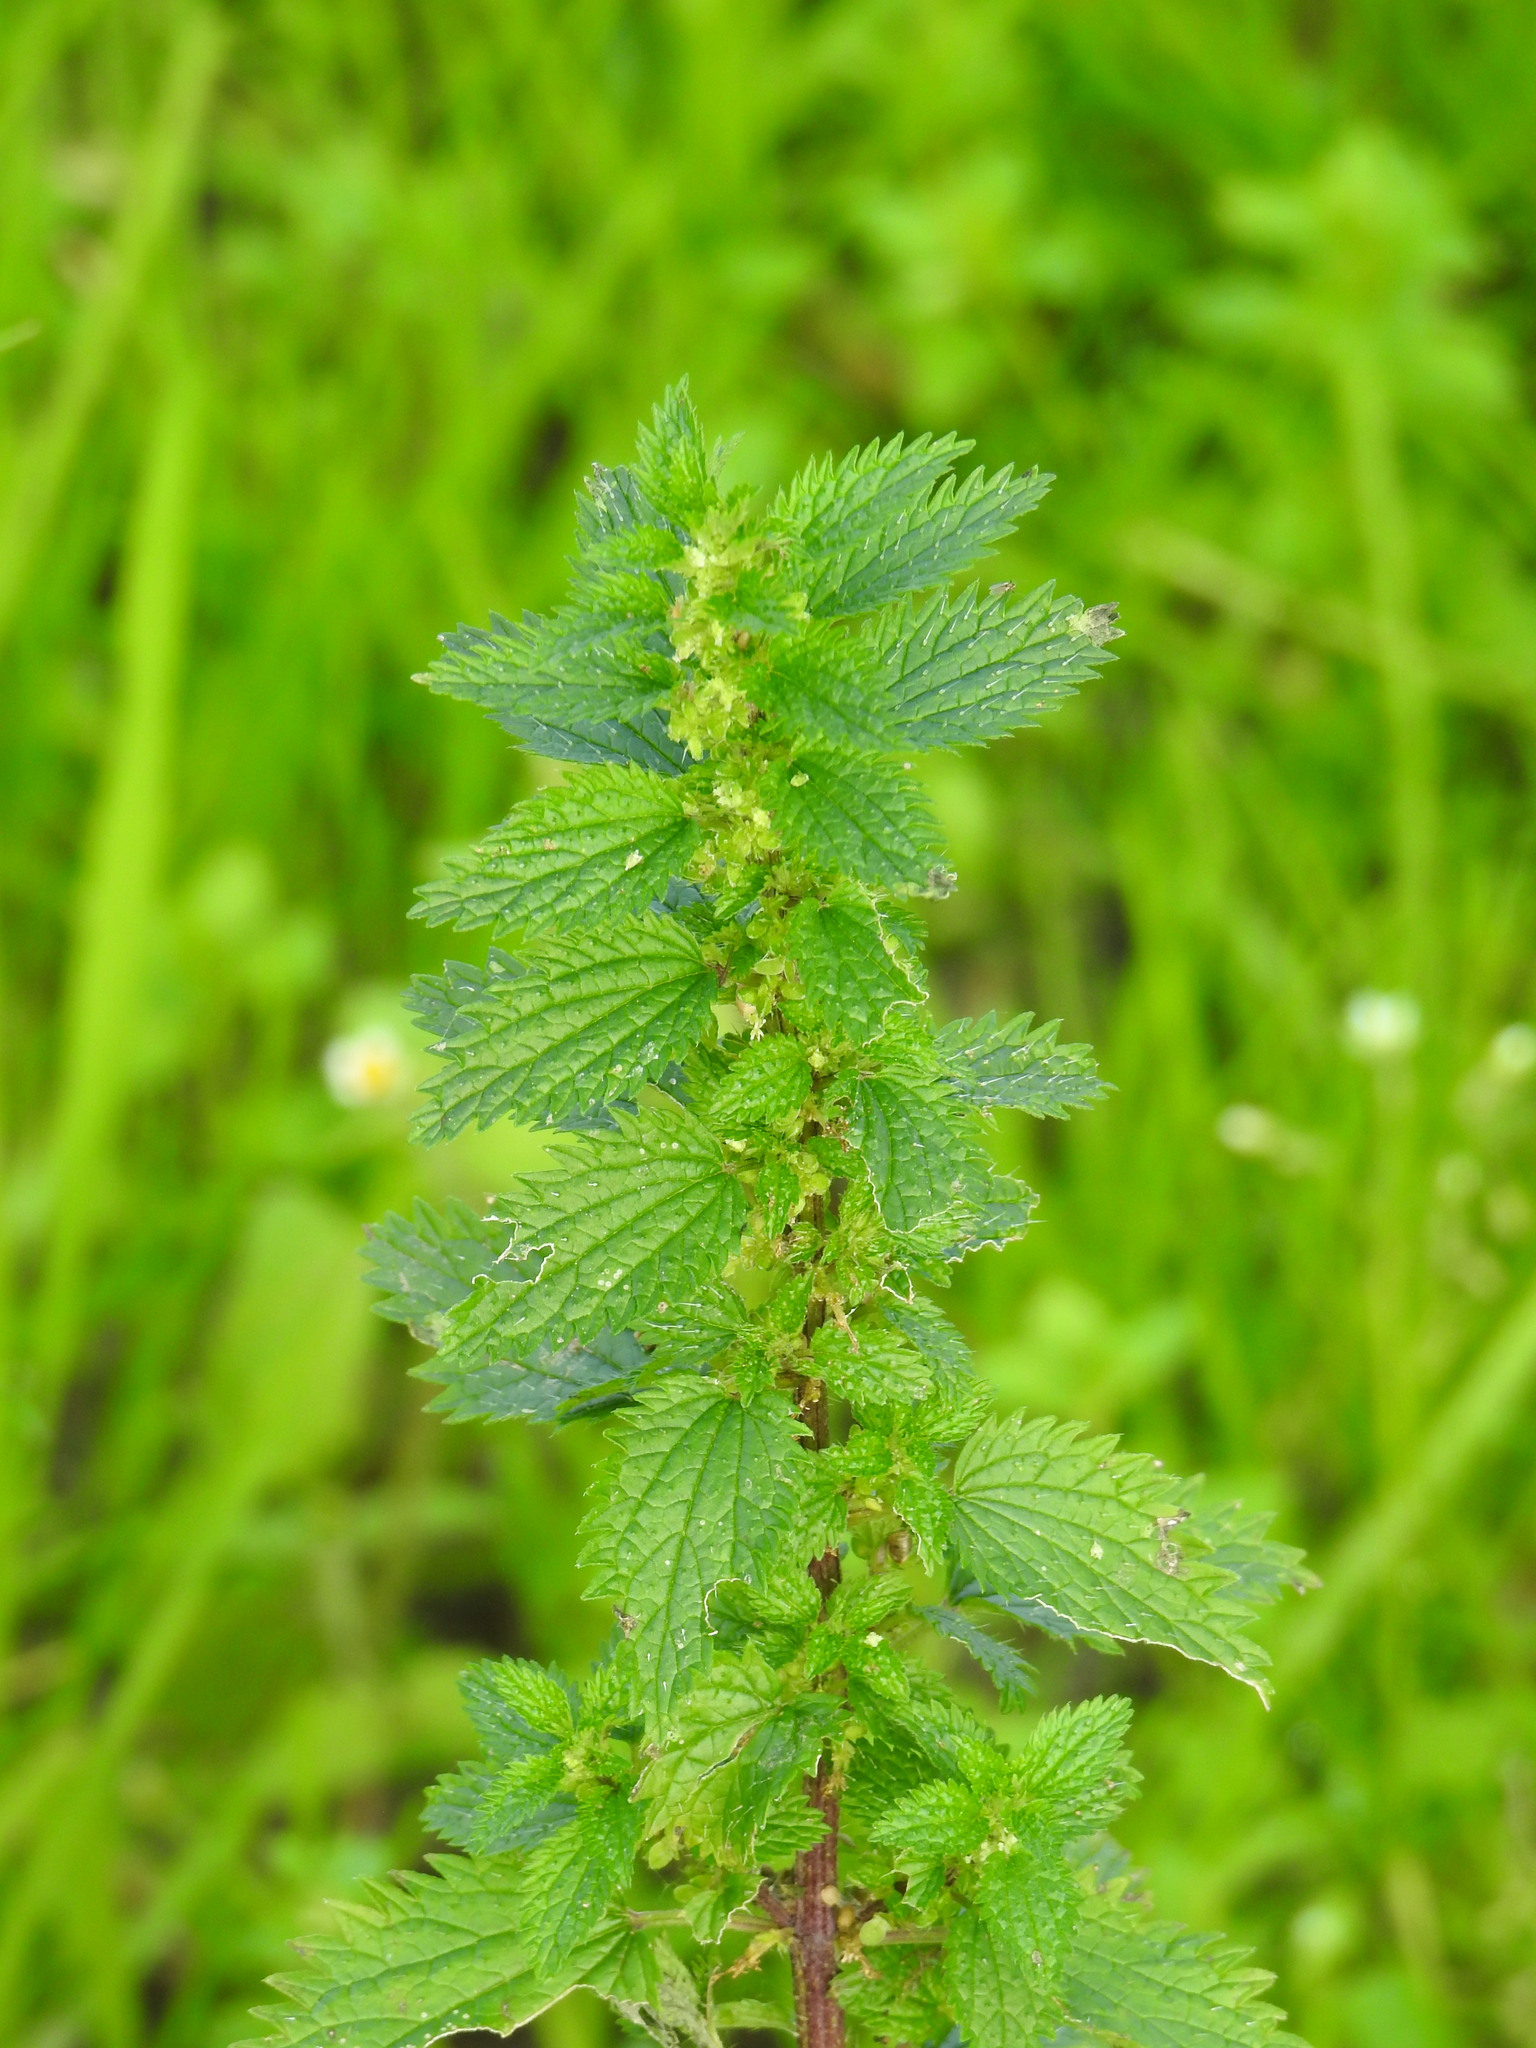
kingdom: Plantae
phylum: Tracheophyta
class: Magnoliopsida
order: Rosales
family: Urticaceae
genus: Urtica
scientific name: Urtica urens
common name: Dwarf nettle
